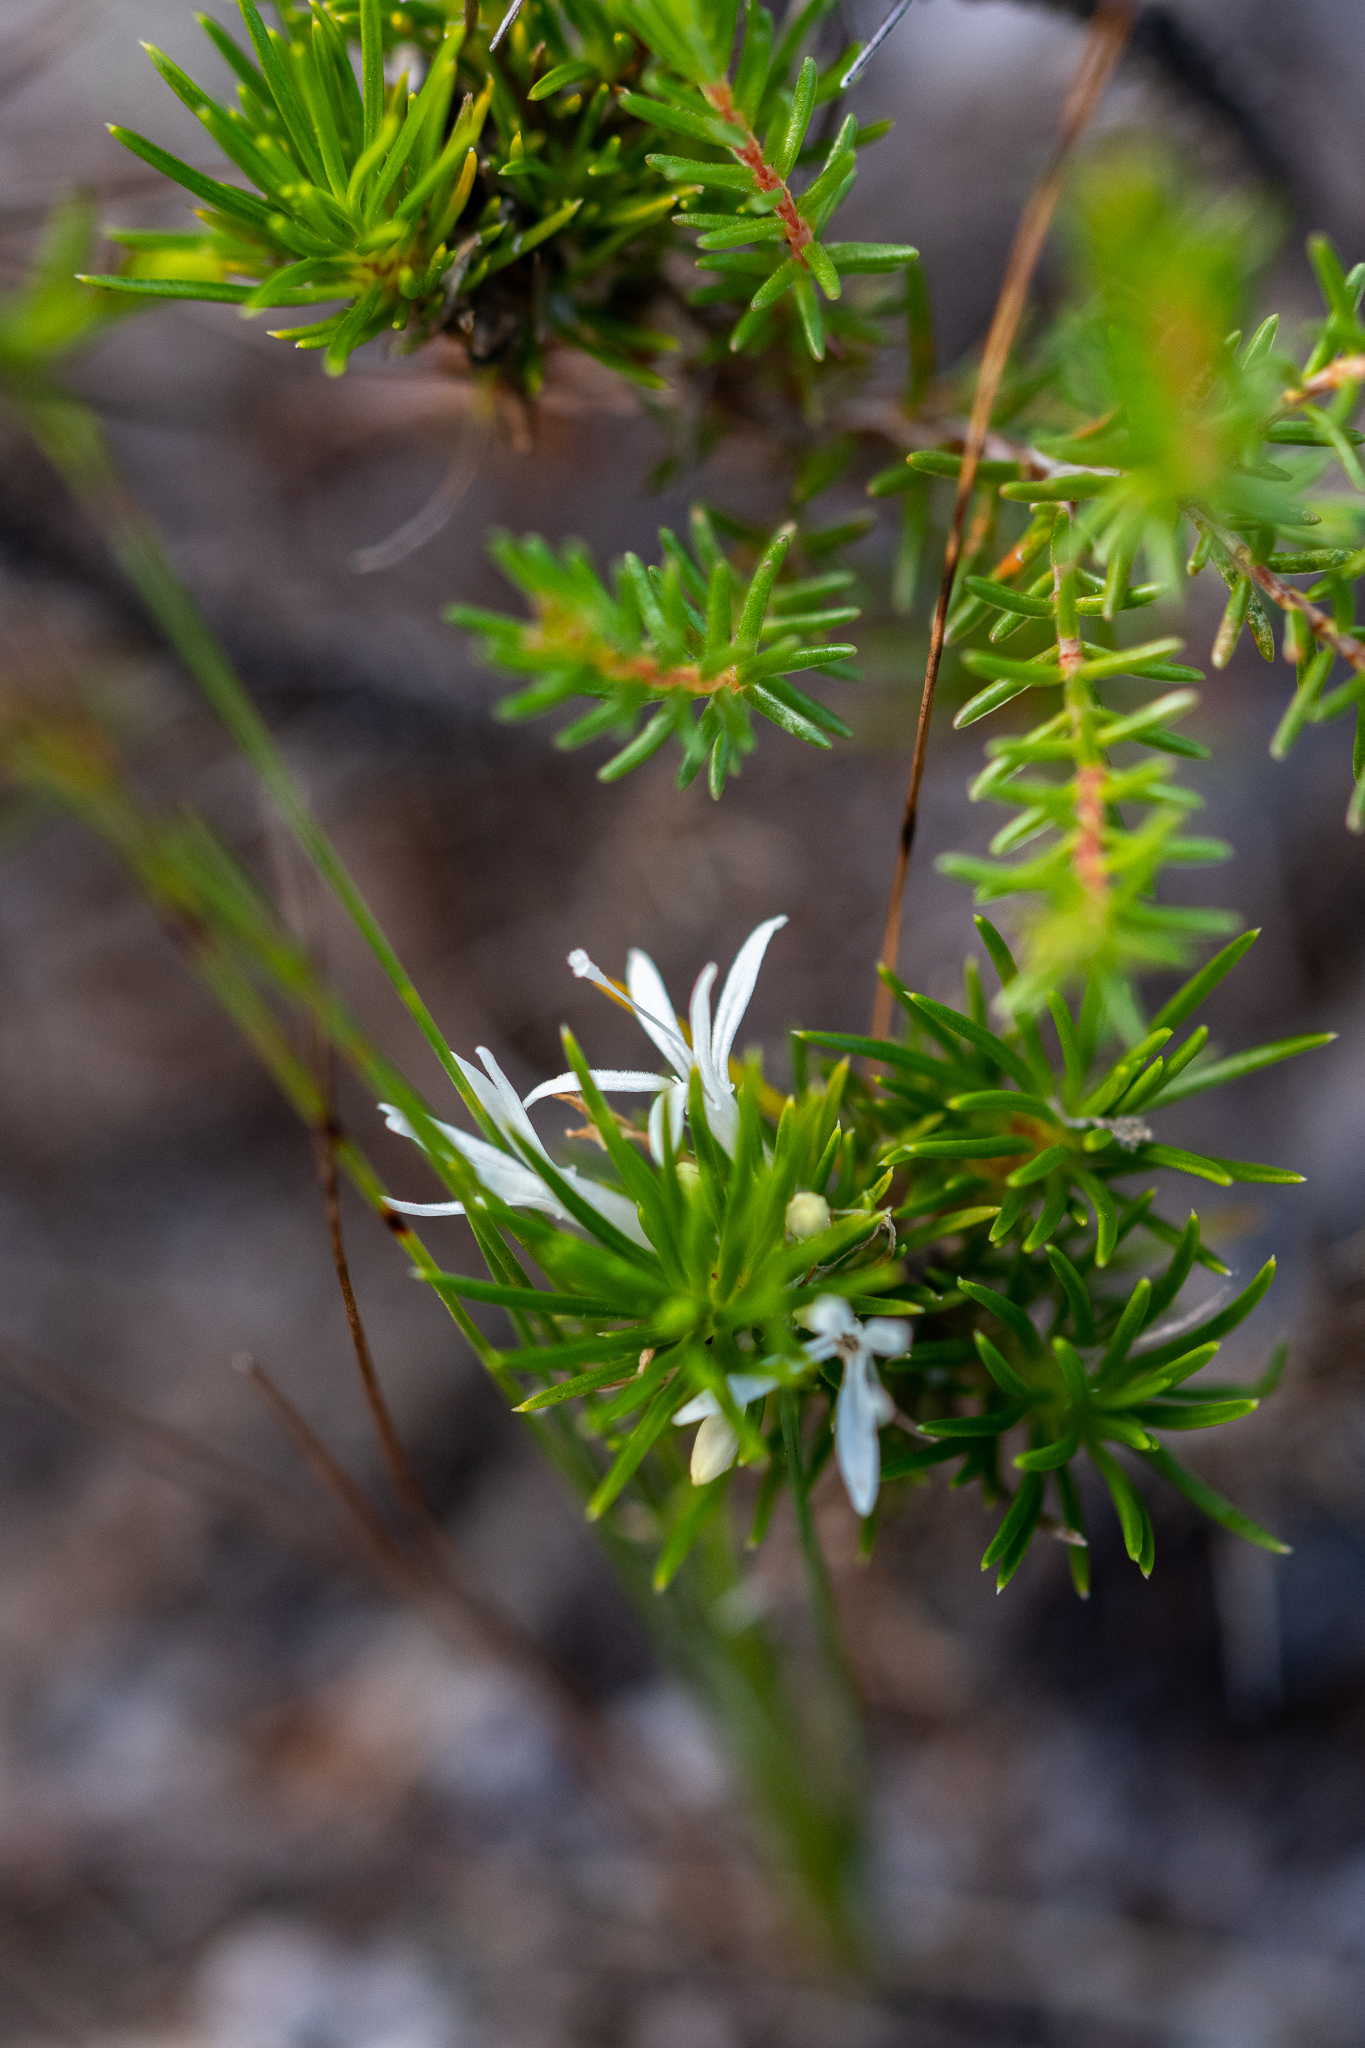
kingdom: Plantae
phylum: Tracheophyta
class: Magnoliopsida
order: Asterales
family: Campanulaceae
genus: Merciera
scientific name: Merciera leptoloba
